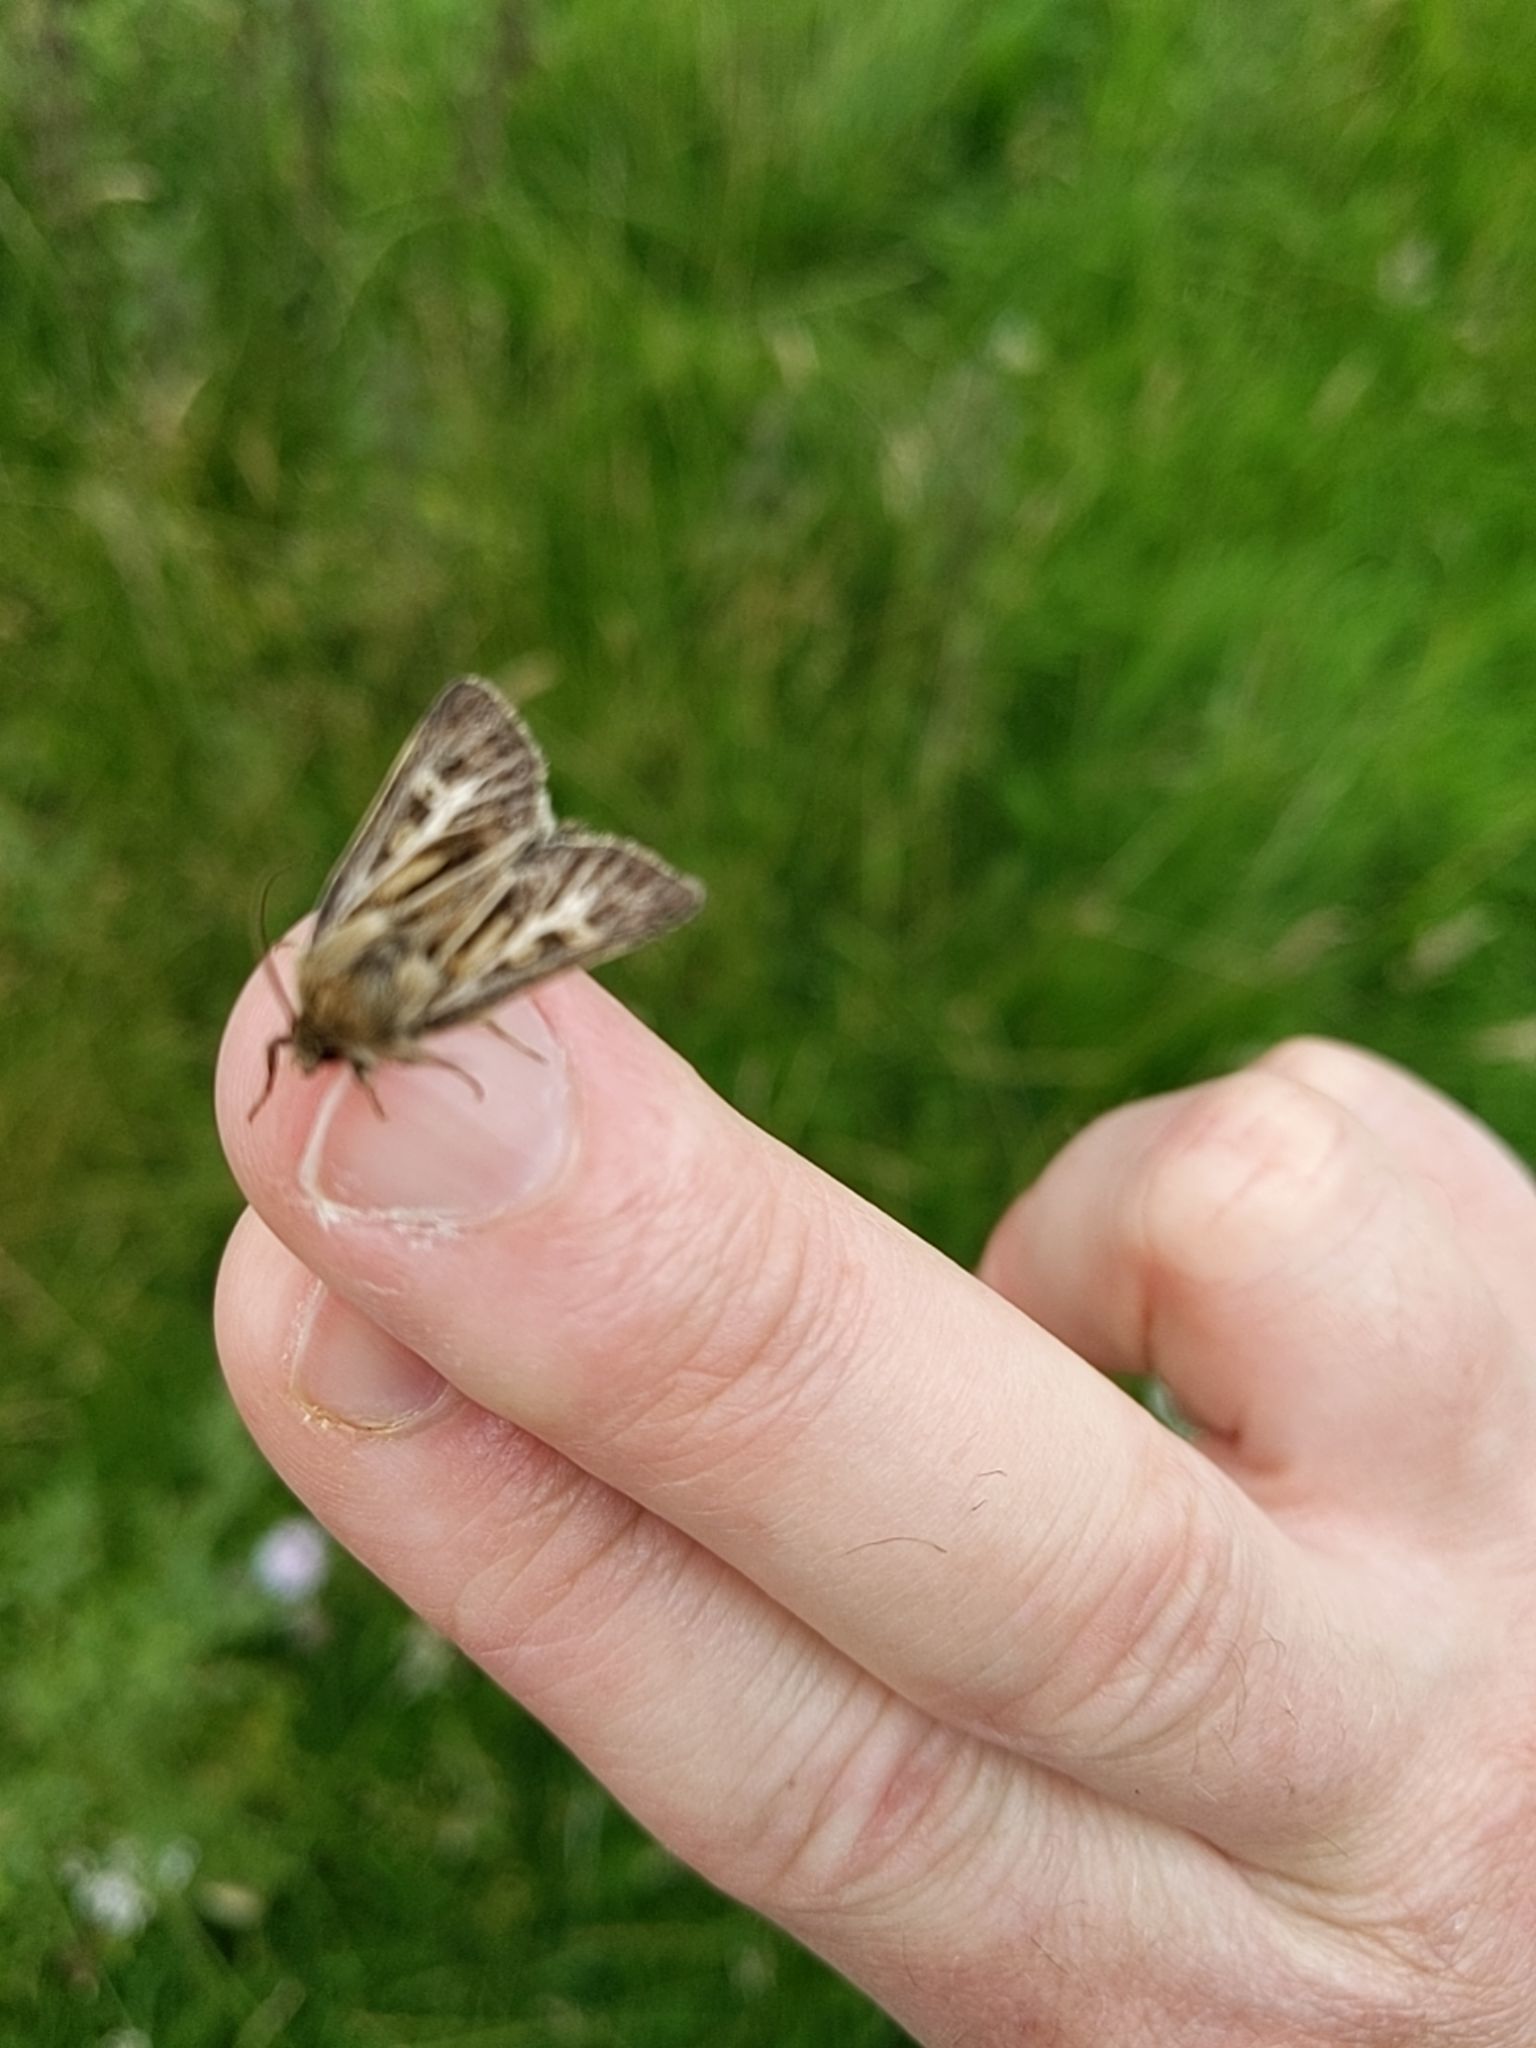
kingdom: Animalia
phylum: Arthropoda
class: Insecta
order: Lepidoptera
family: Noctuidae
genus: Cerapteryx
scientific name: Cerapteryx graminis
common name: Antler moth
